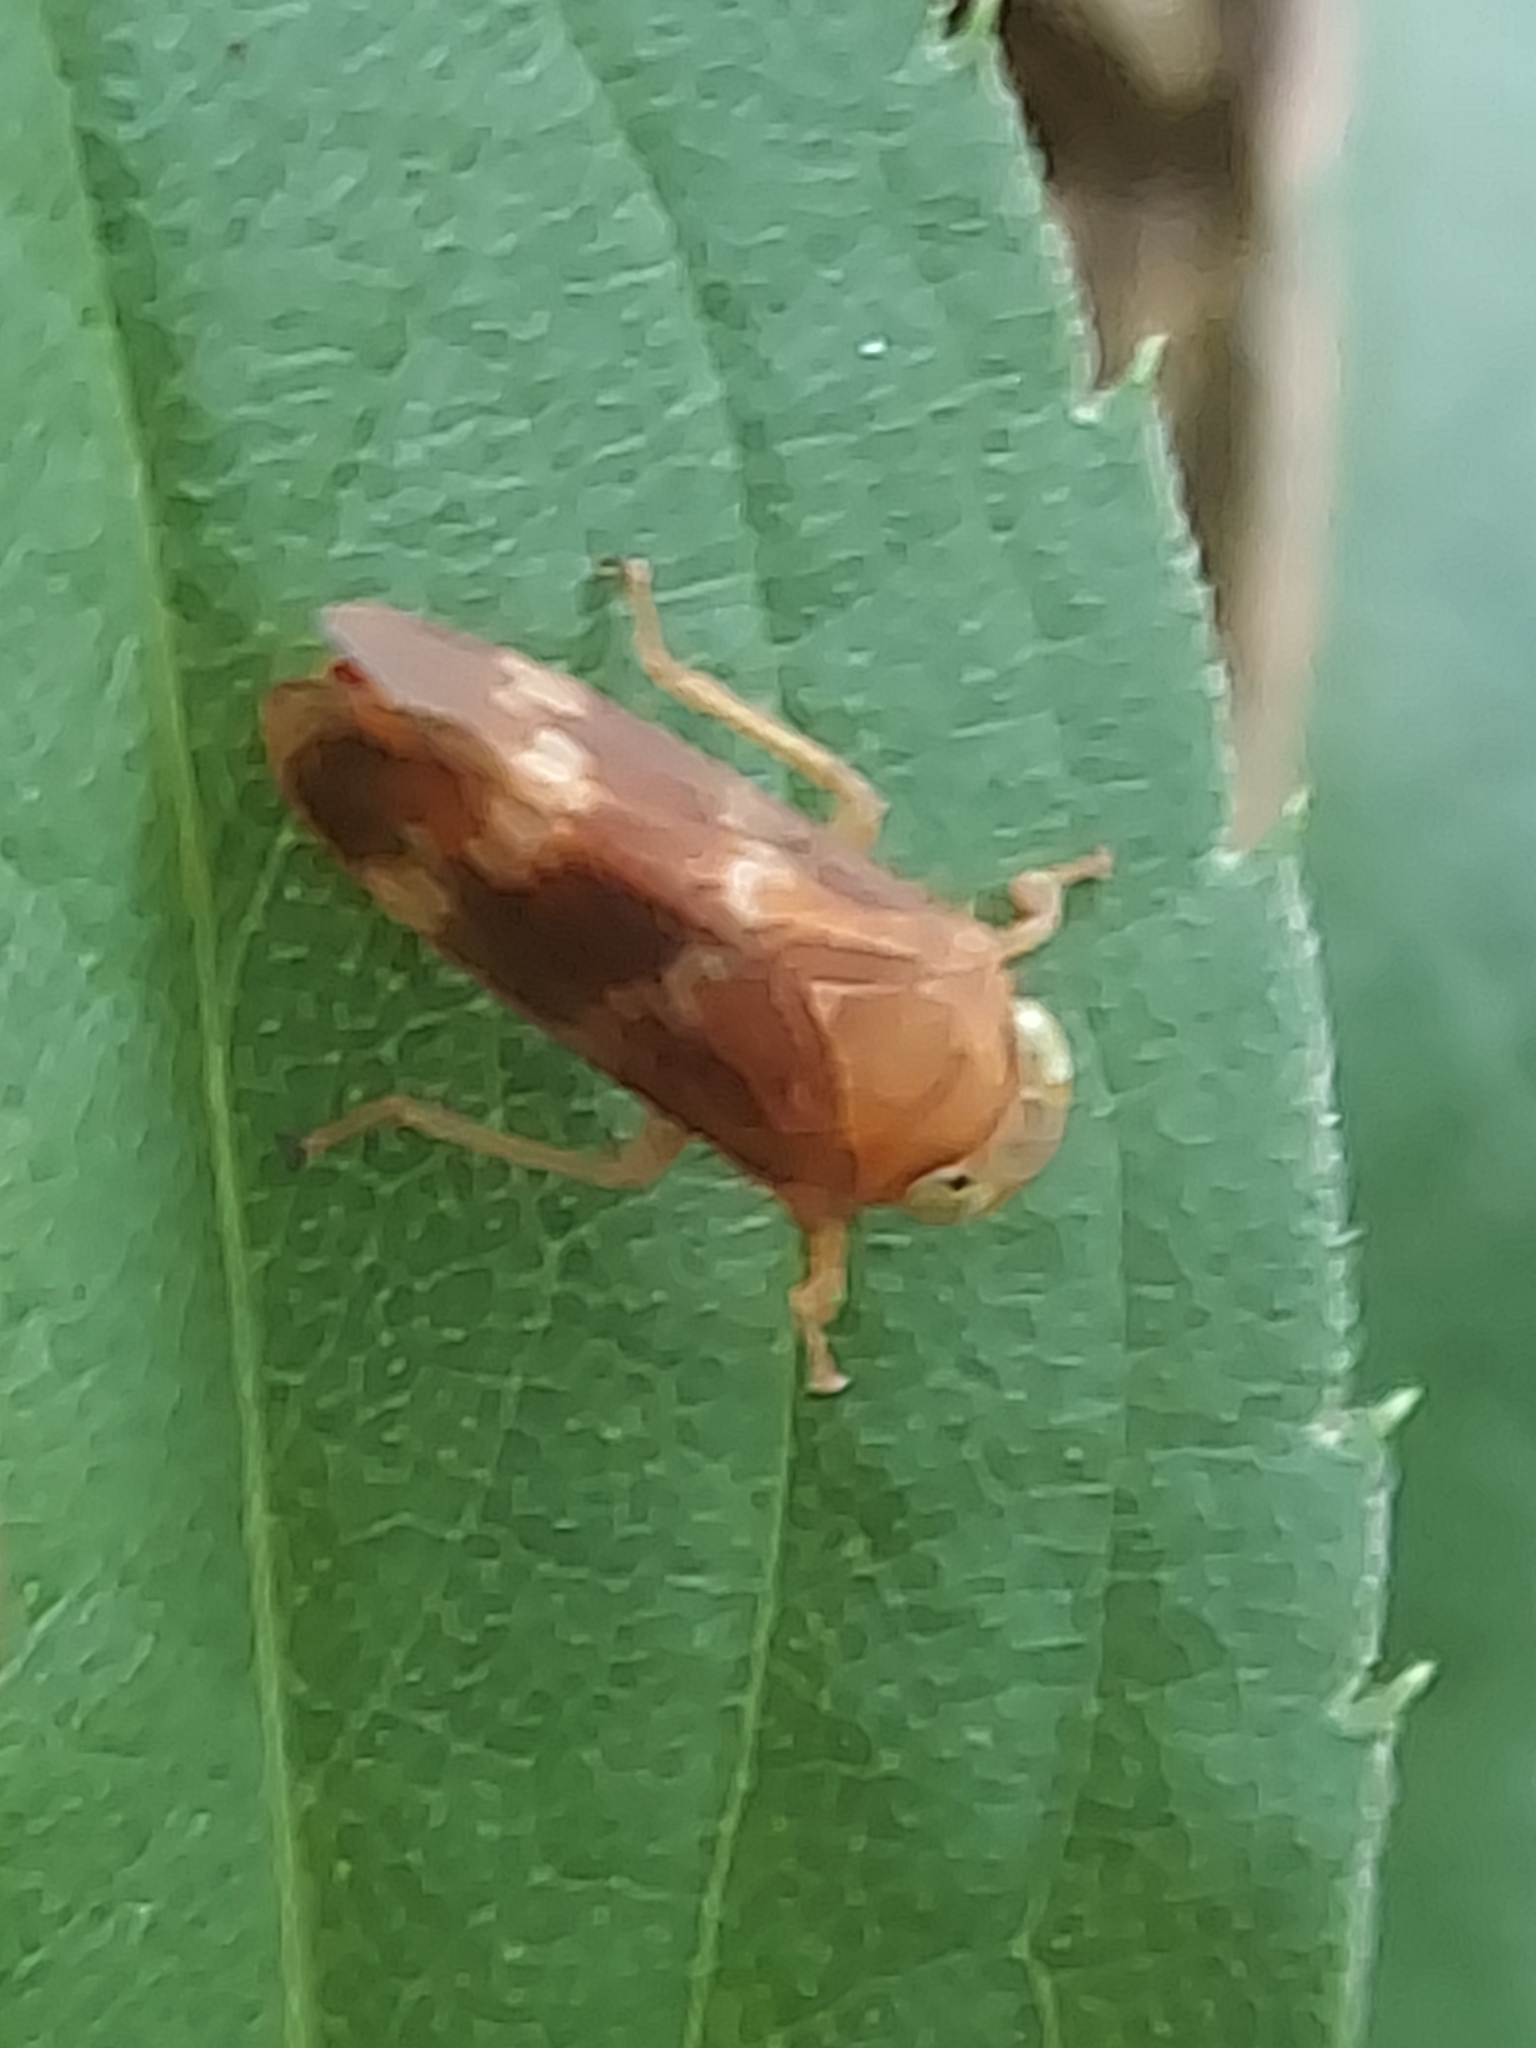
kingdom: Animalia
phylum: Arthropoda
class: Insecta
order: Hemiptera
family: Cicadellidae
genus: Jikradia
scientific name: Jikradia olitoria
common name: Coppery leafhopper
